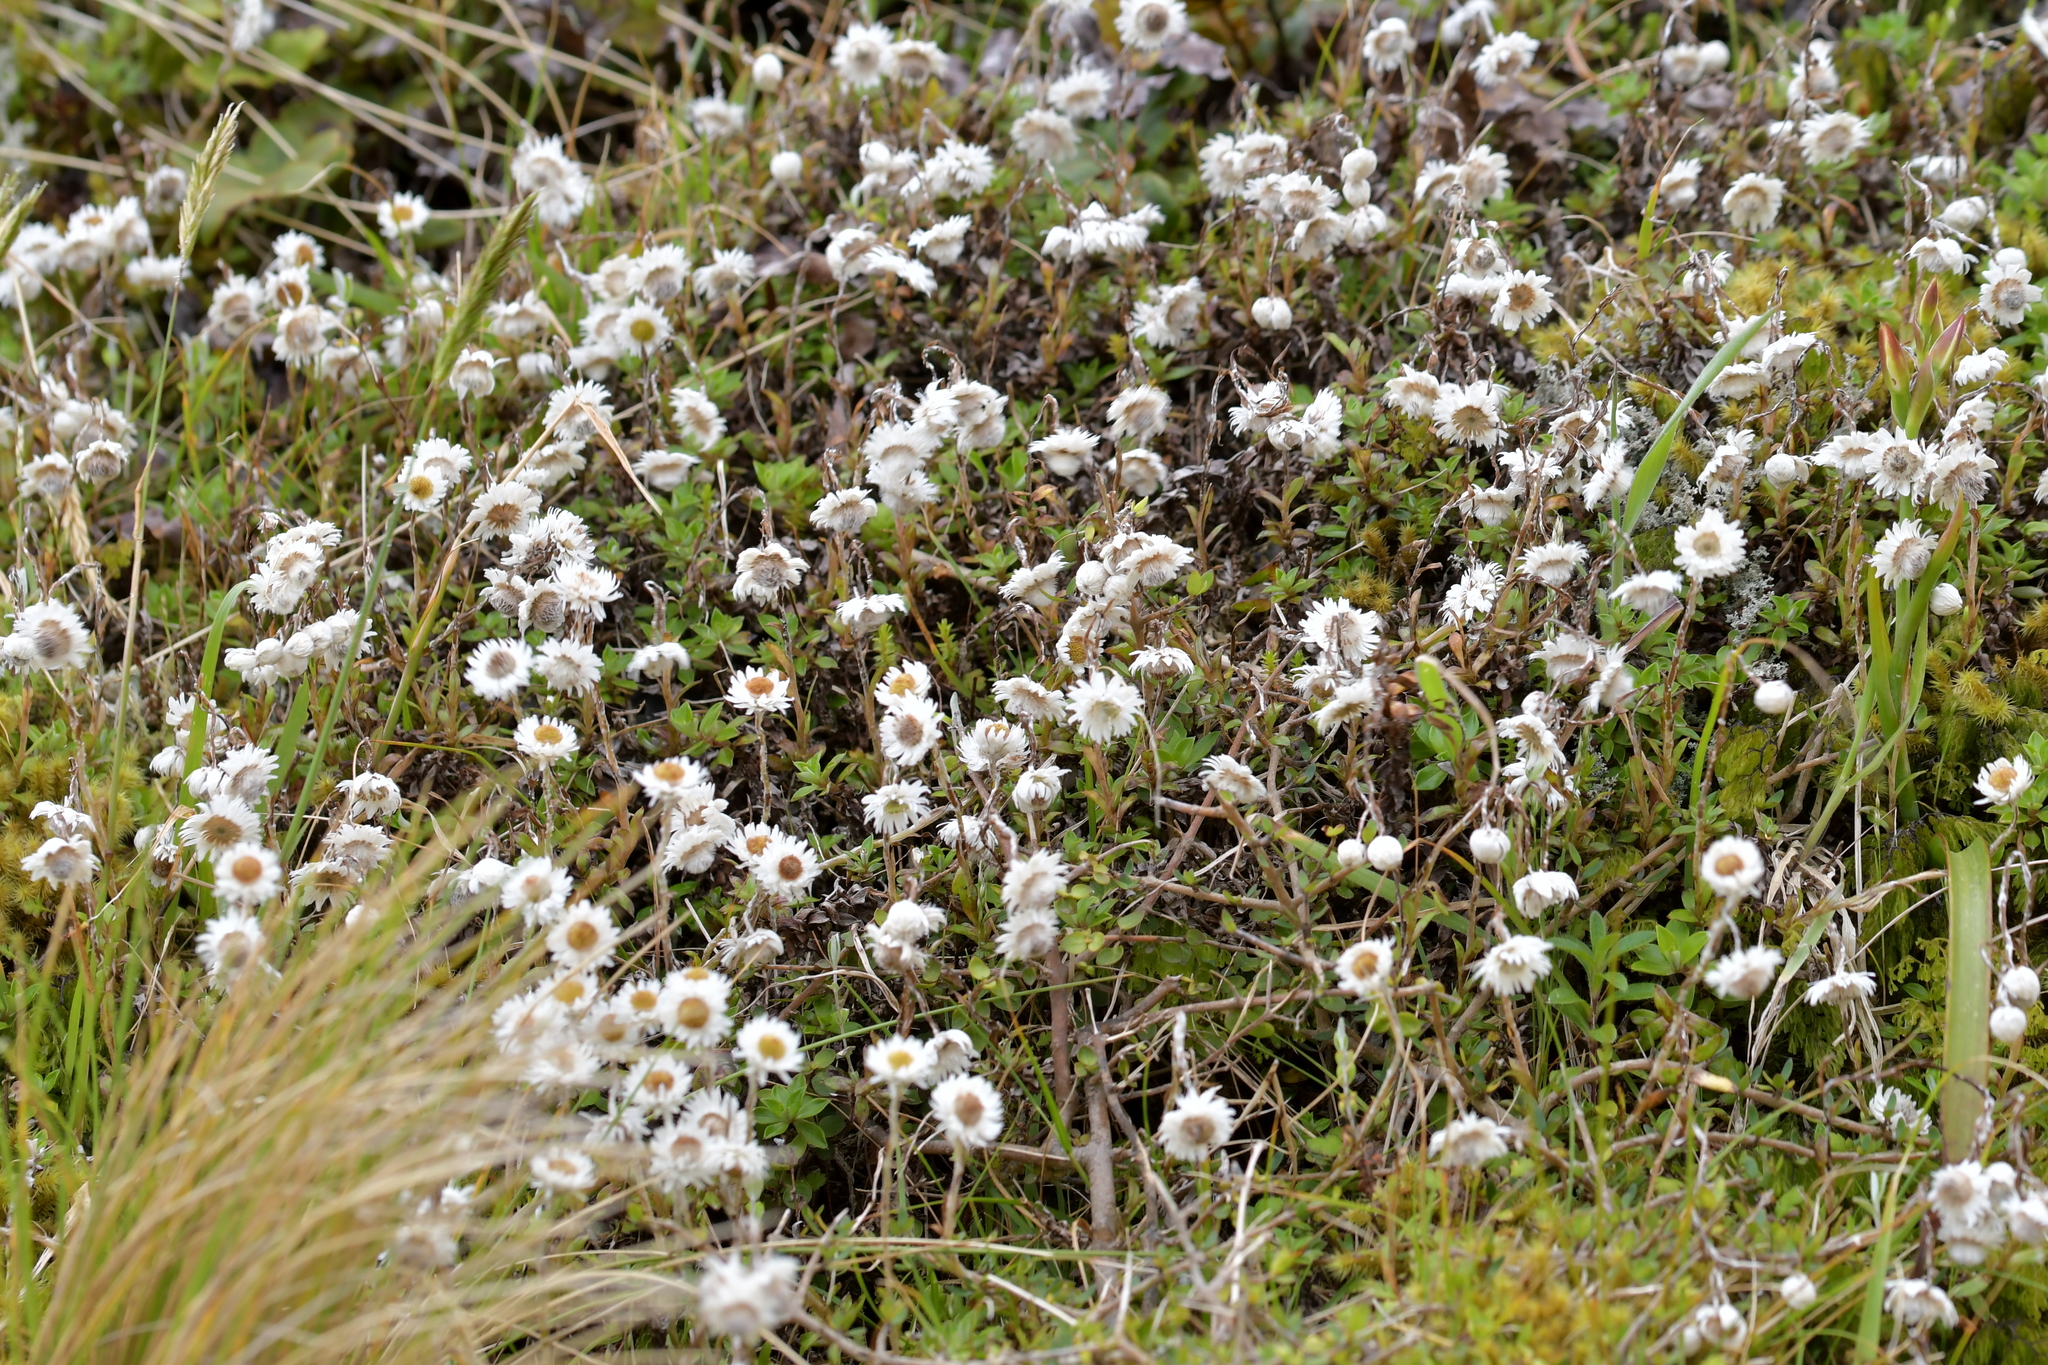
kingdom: Plantae
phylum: Tracheophyta
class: Magnoliopsida
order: Asterales
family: Asteraceae
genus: Anaphalioides
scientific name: Anaphalioides bellidioides
